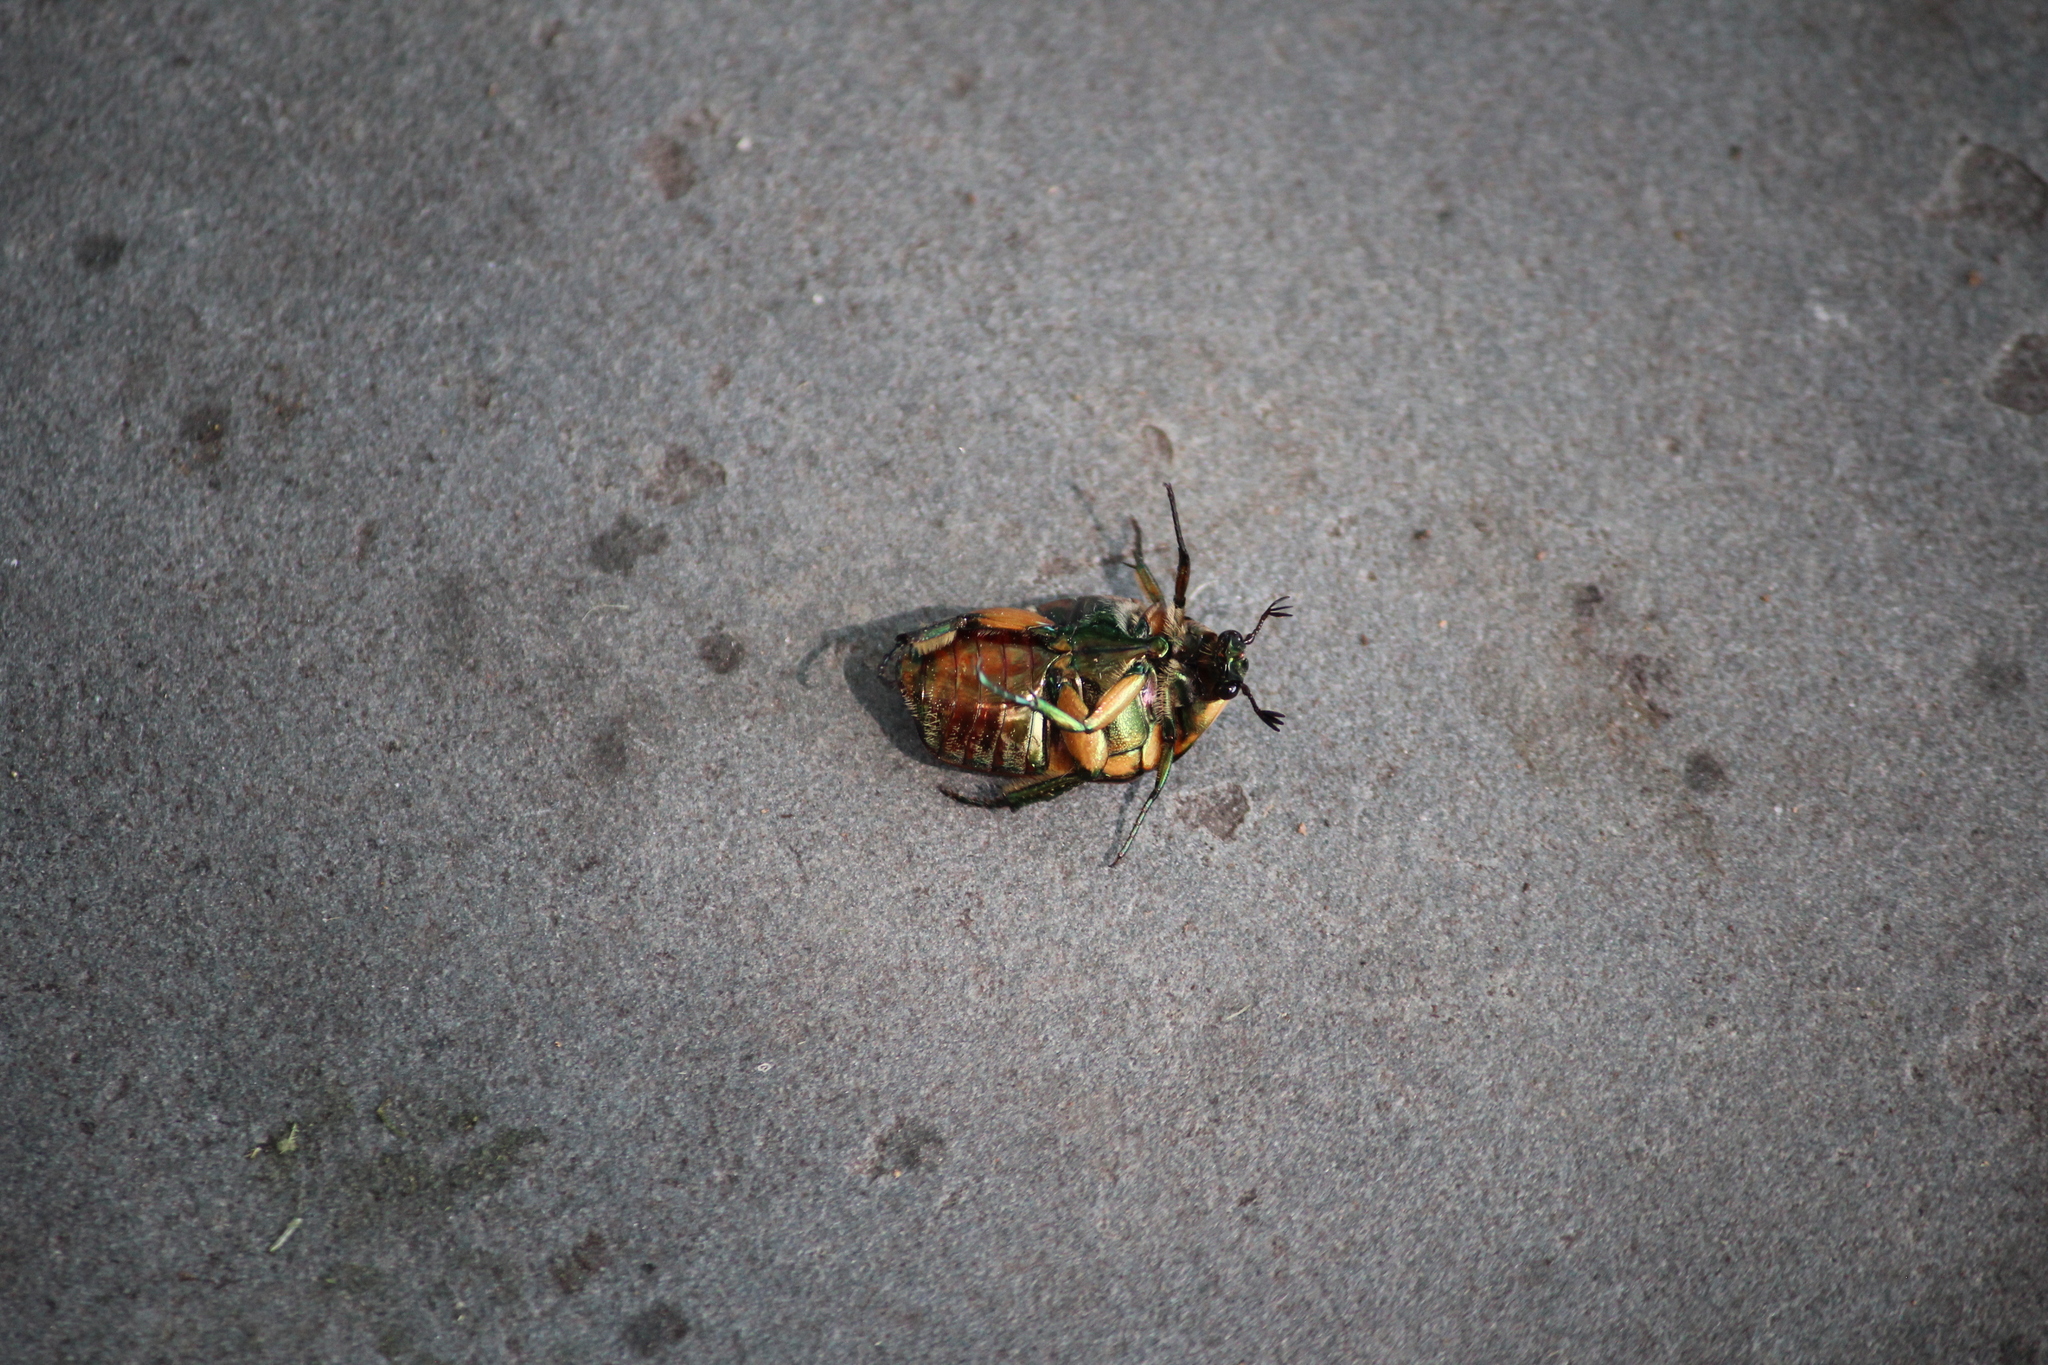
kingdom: Animalia
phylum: Arthropoda
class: Insecta
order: Coleoptera
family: Scarabaeidae
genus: Cotinis
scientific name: Cotinis nitida
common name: Common green june beetle
